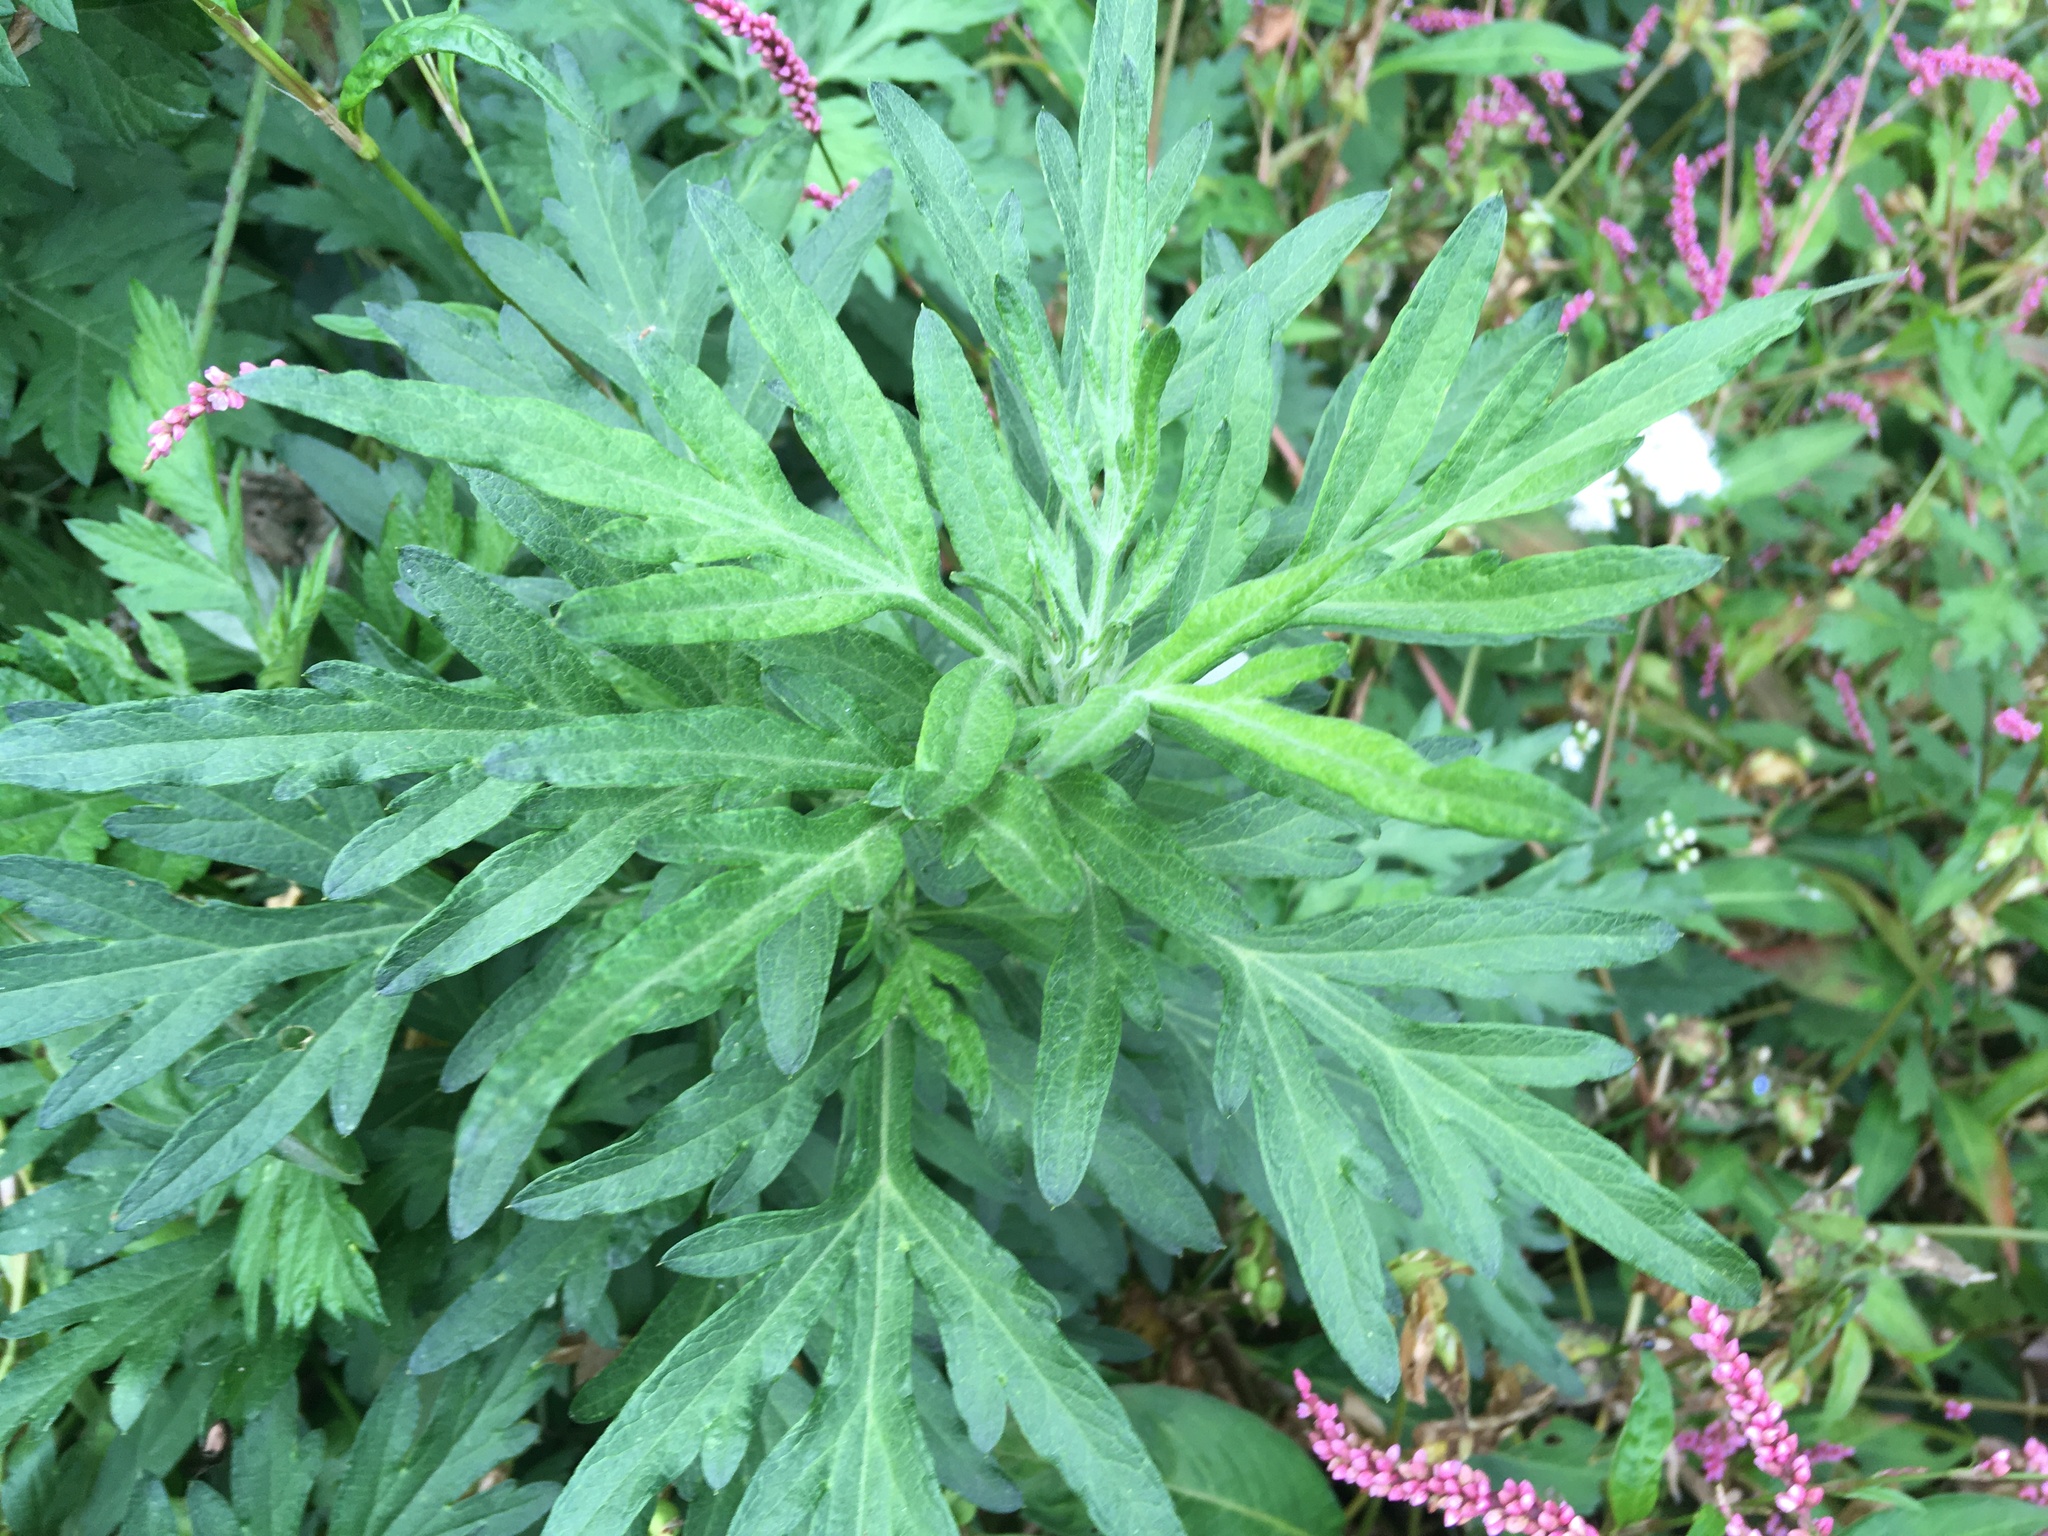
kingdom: Plantae
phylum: Tracheophyta
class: Magnoliopsida
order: Asterales
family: Asteraceae
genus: Artemisia
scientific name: Artemisia vulgaris
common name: Mugwort
